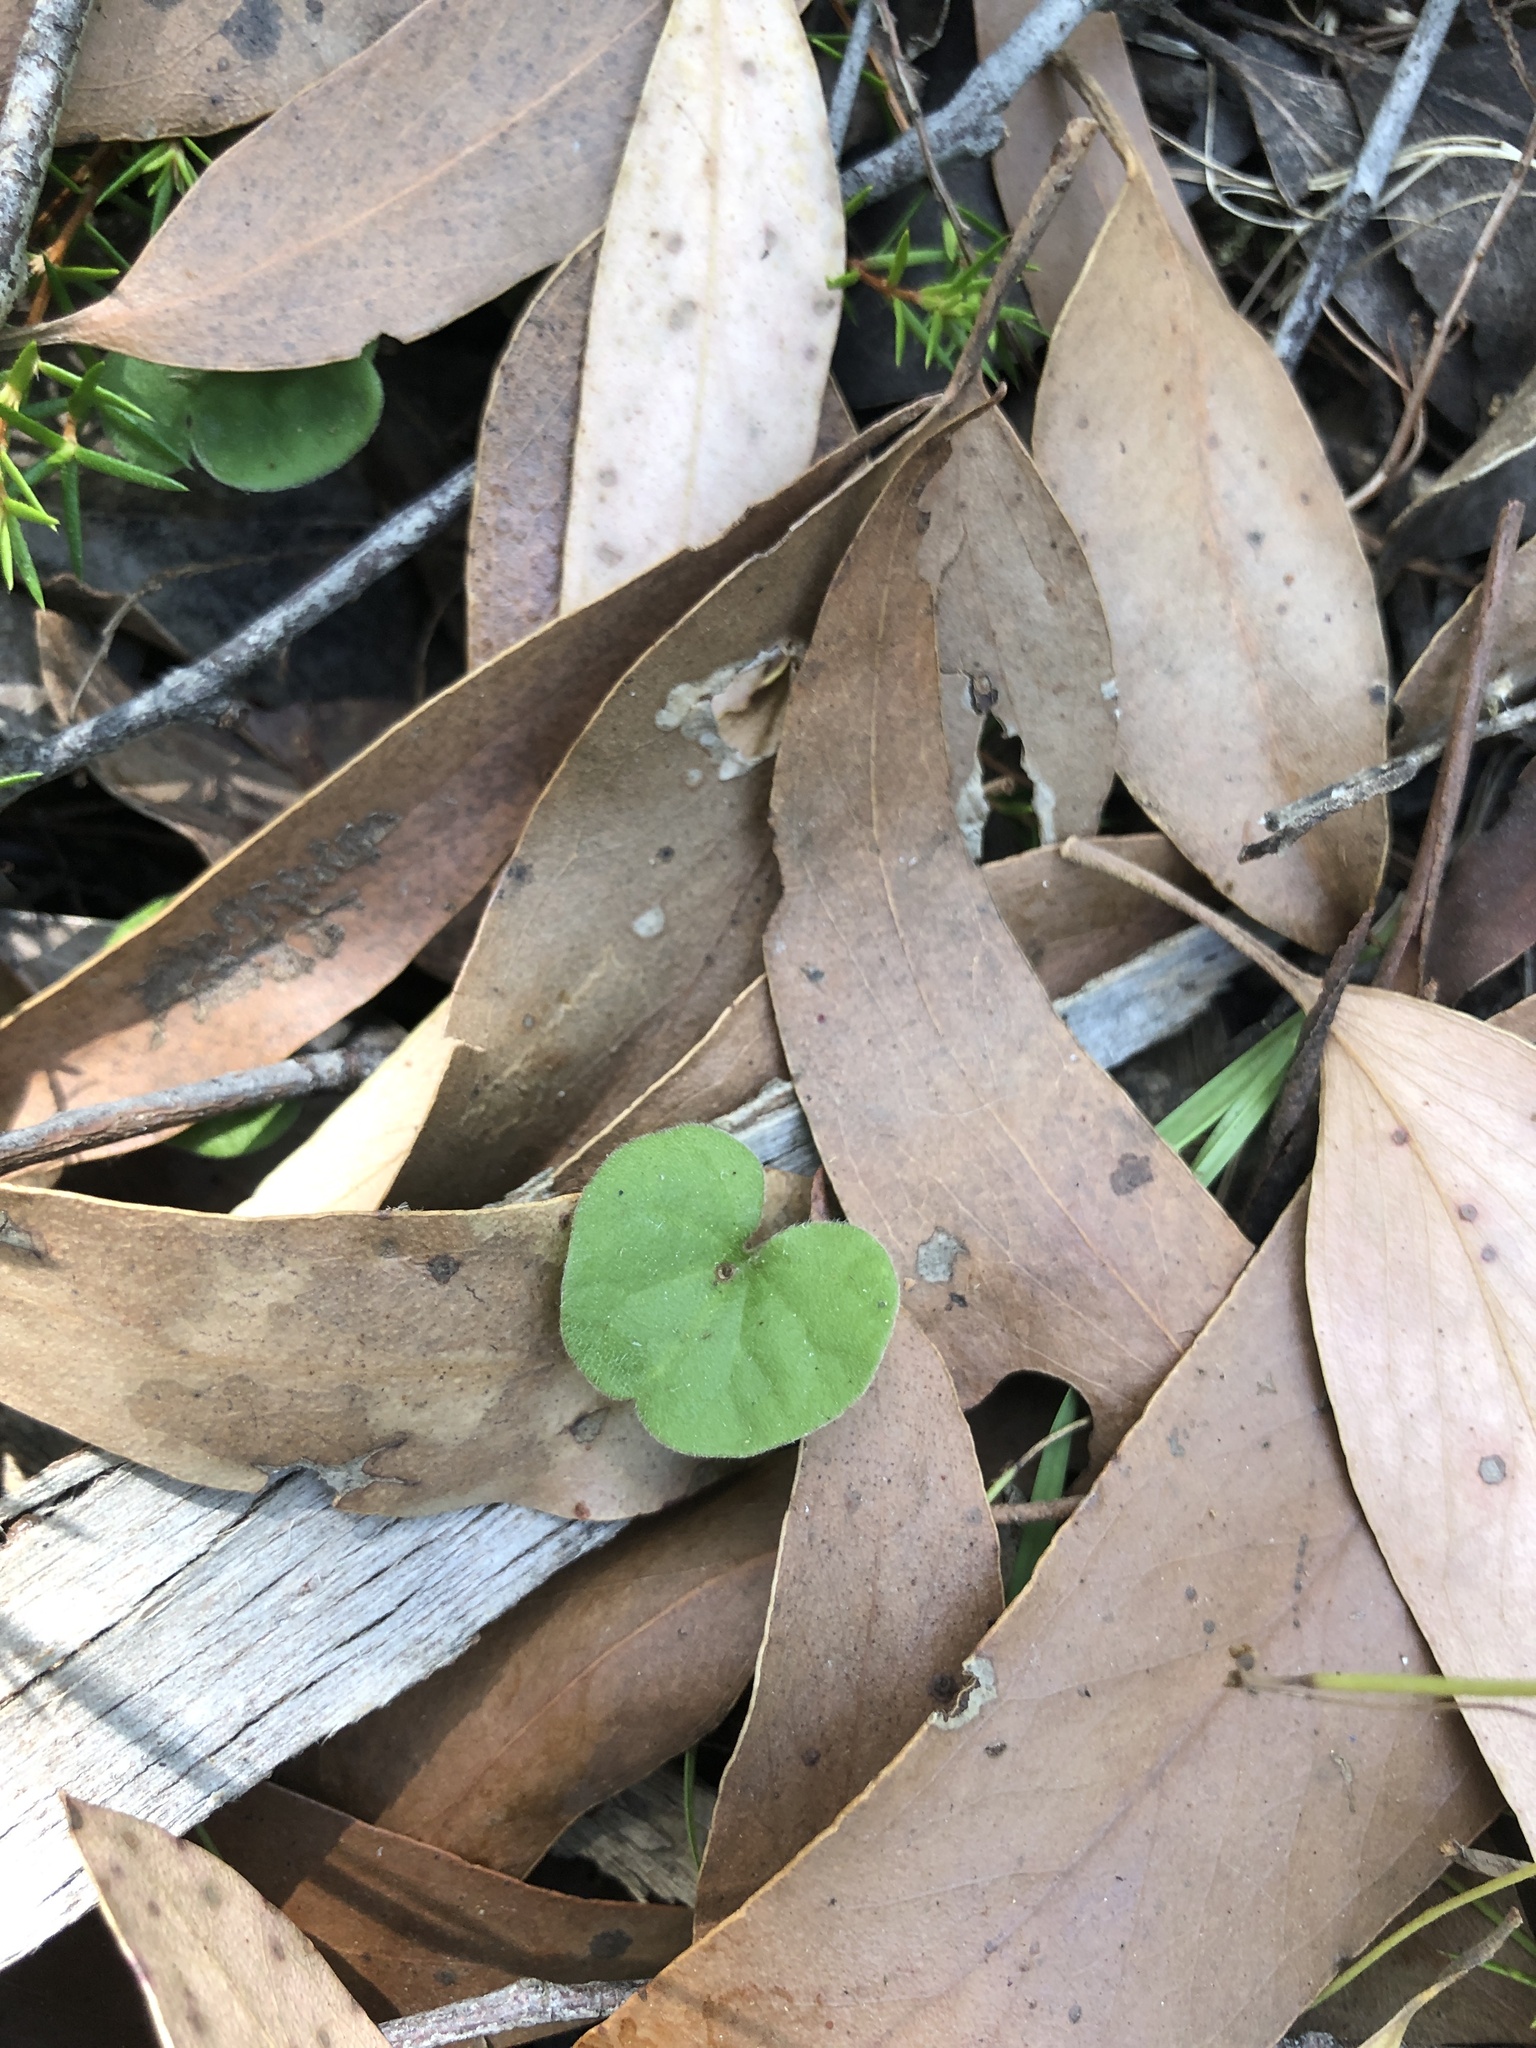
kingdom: Plantae
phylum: Tracheophyta
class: Magnoliopsida
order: Solanales
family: Convolvulaceae
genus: Dichondra
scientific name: Dichondra repens
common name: Kidneyweed
